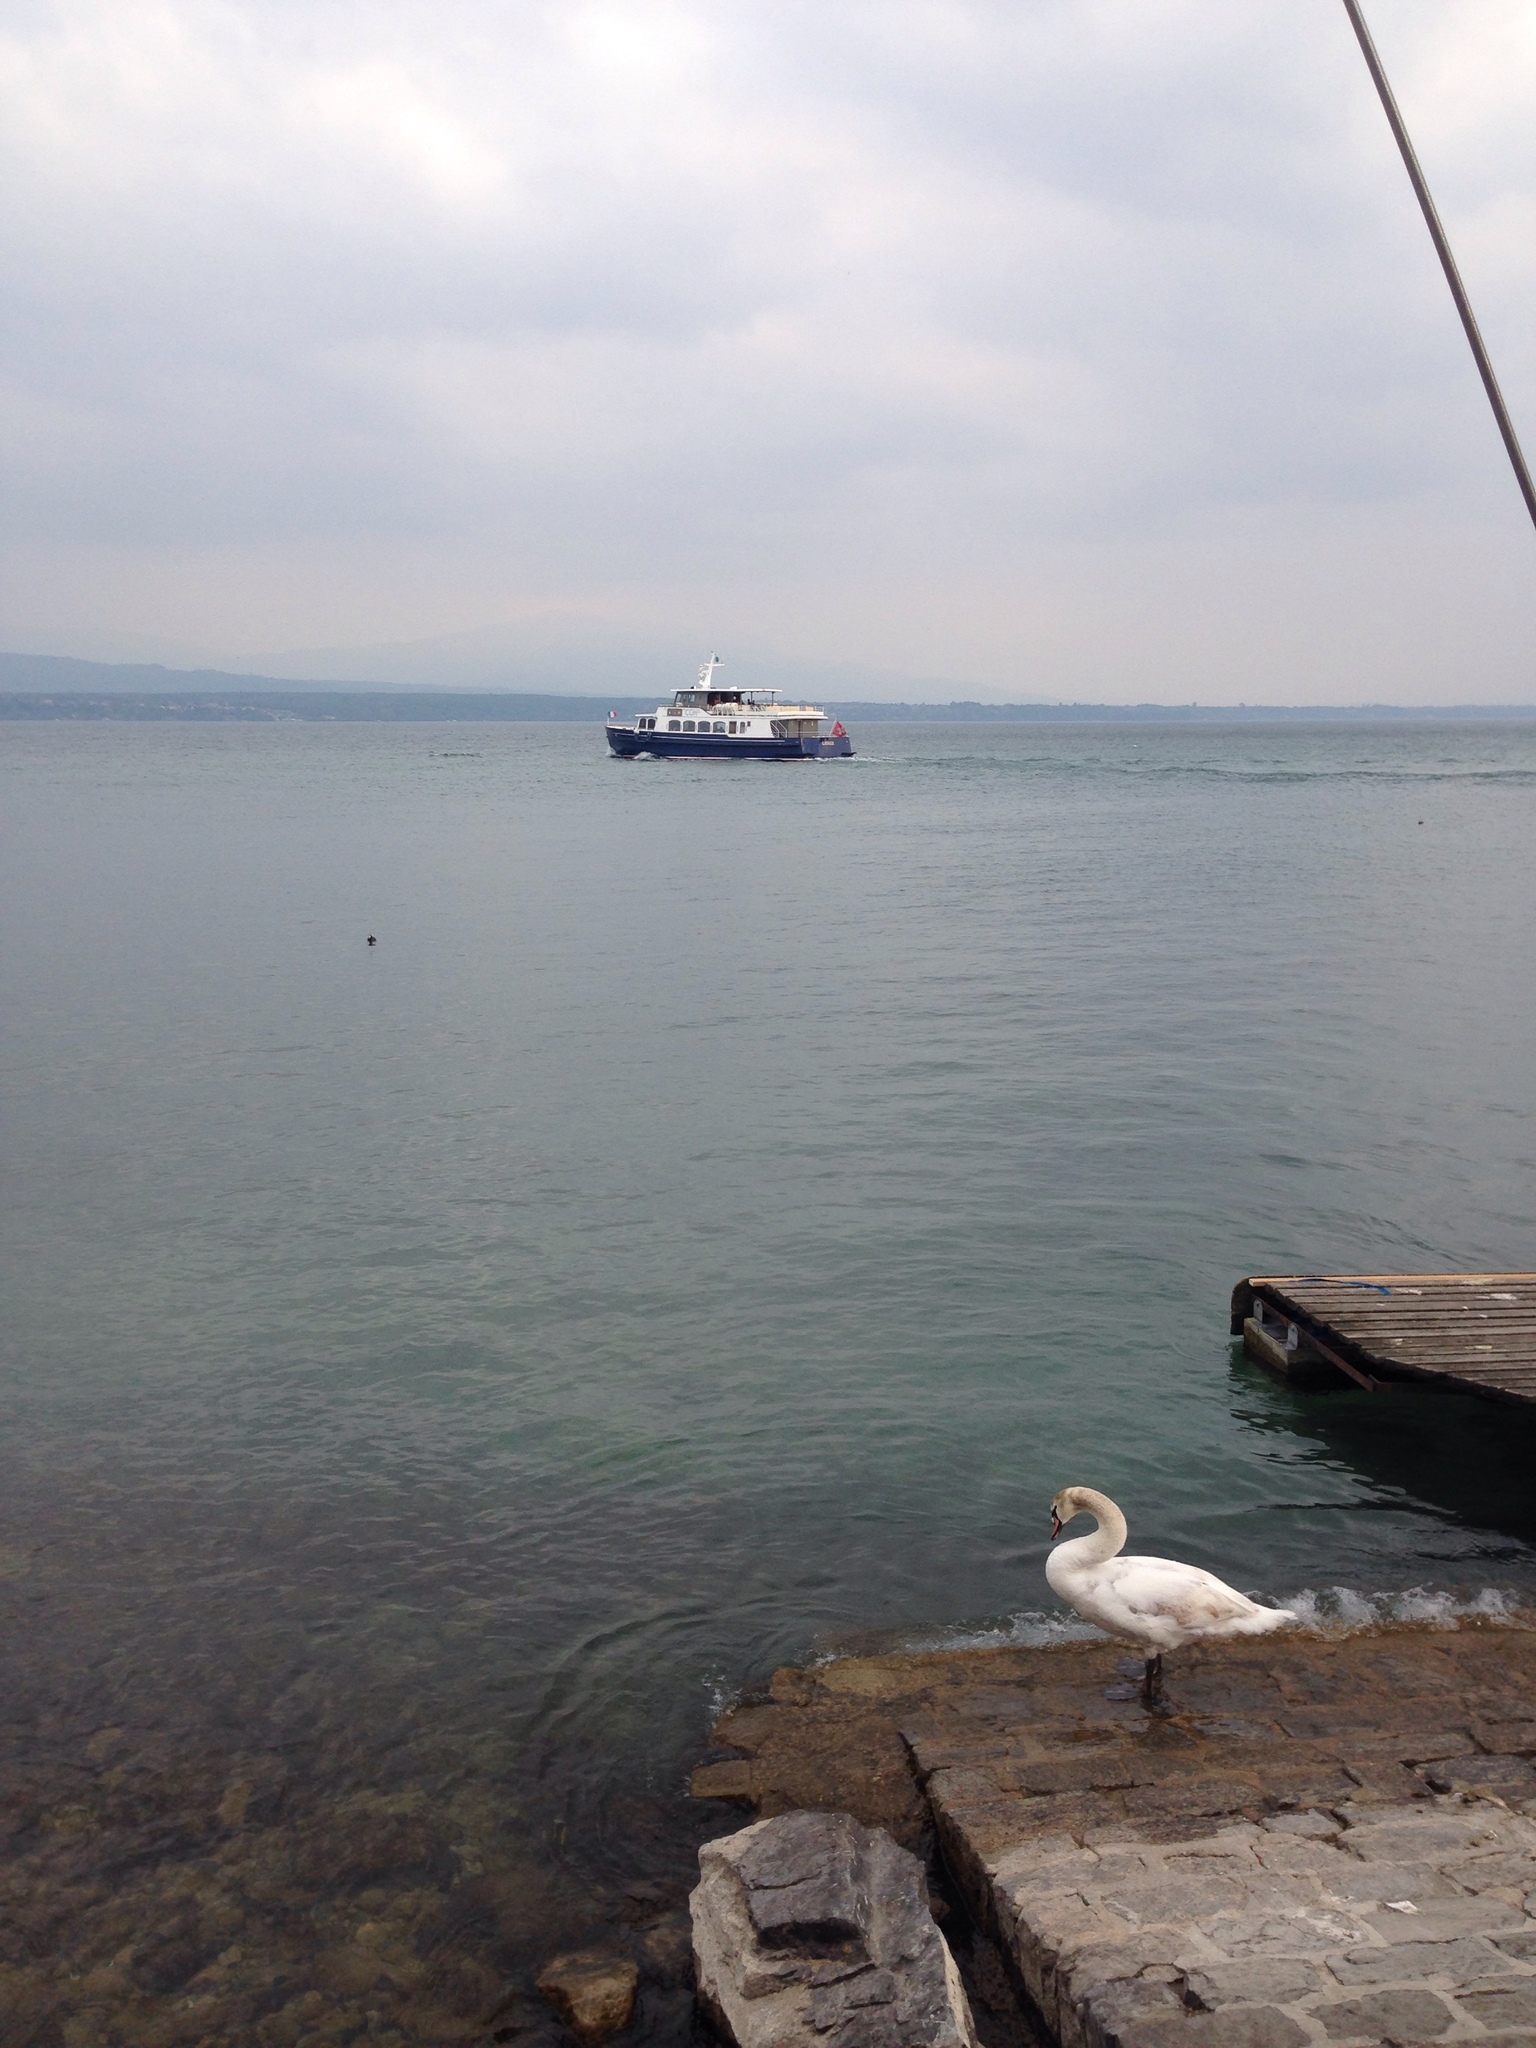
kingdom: Animalia
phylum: Chordata
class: Aves
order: Anseriformes
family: Anatidae
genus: Cygnus
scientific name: Cygnus olor
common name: Mute swan
